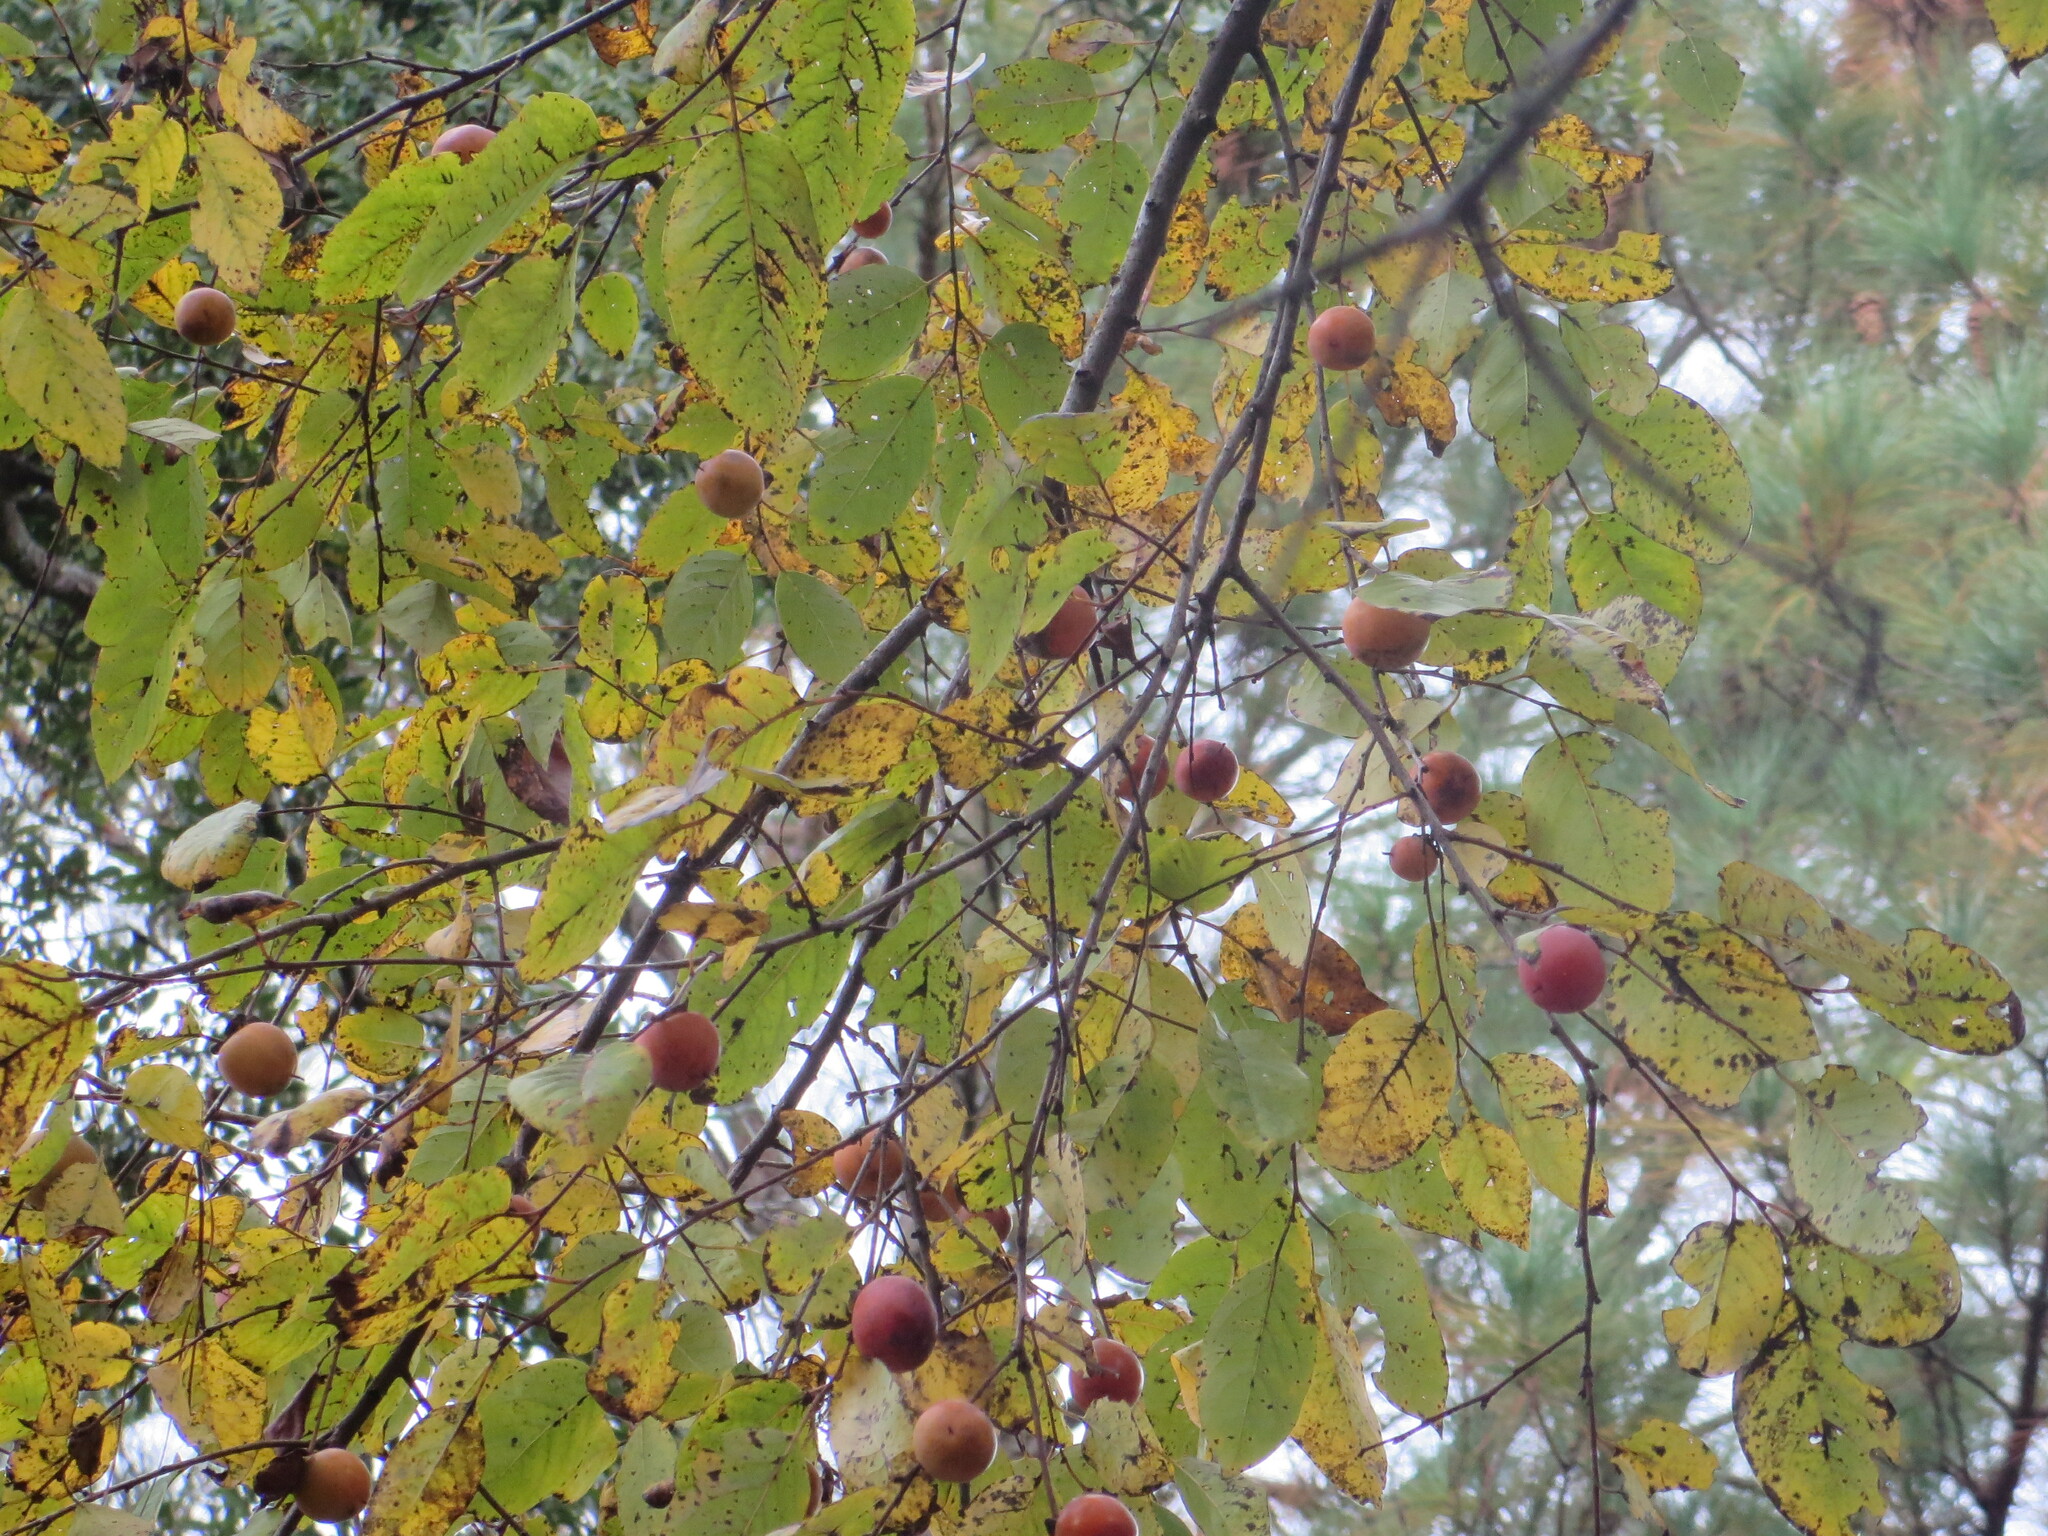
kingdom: Plantae
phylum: Tracheophyta
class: Magnoliopsida
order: Ericales
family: Ebenaceae
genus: Diospyros
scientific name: Diospyros virginiana
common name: Persimmon
